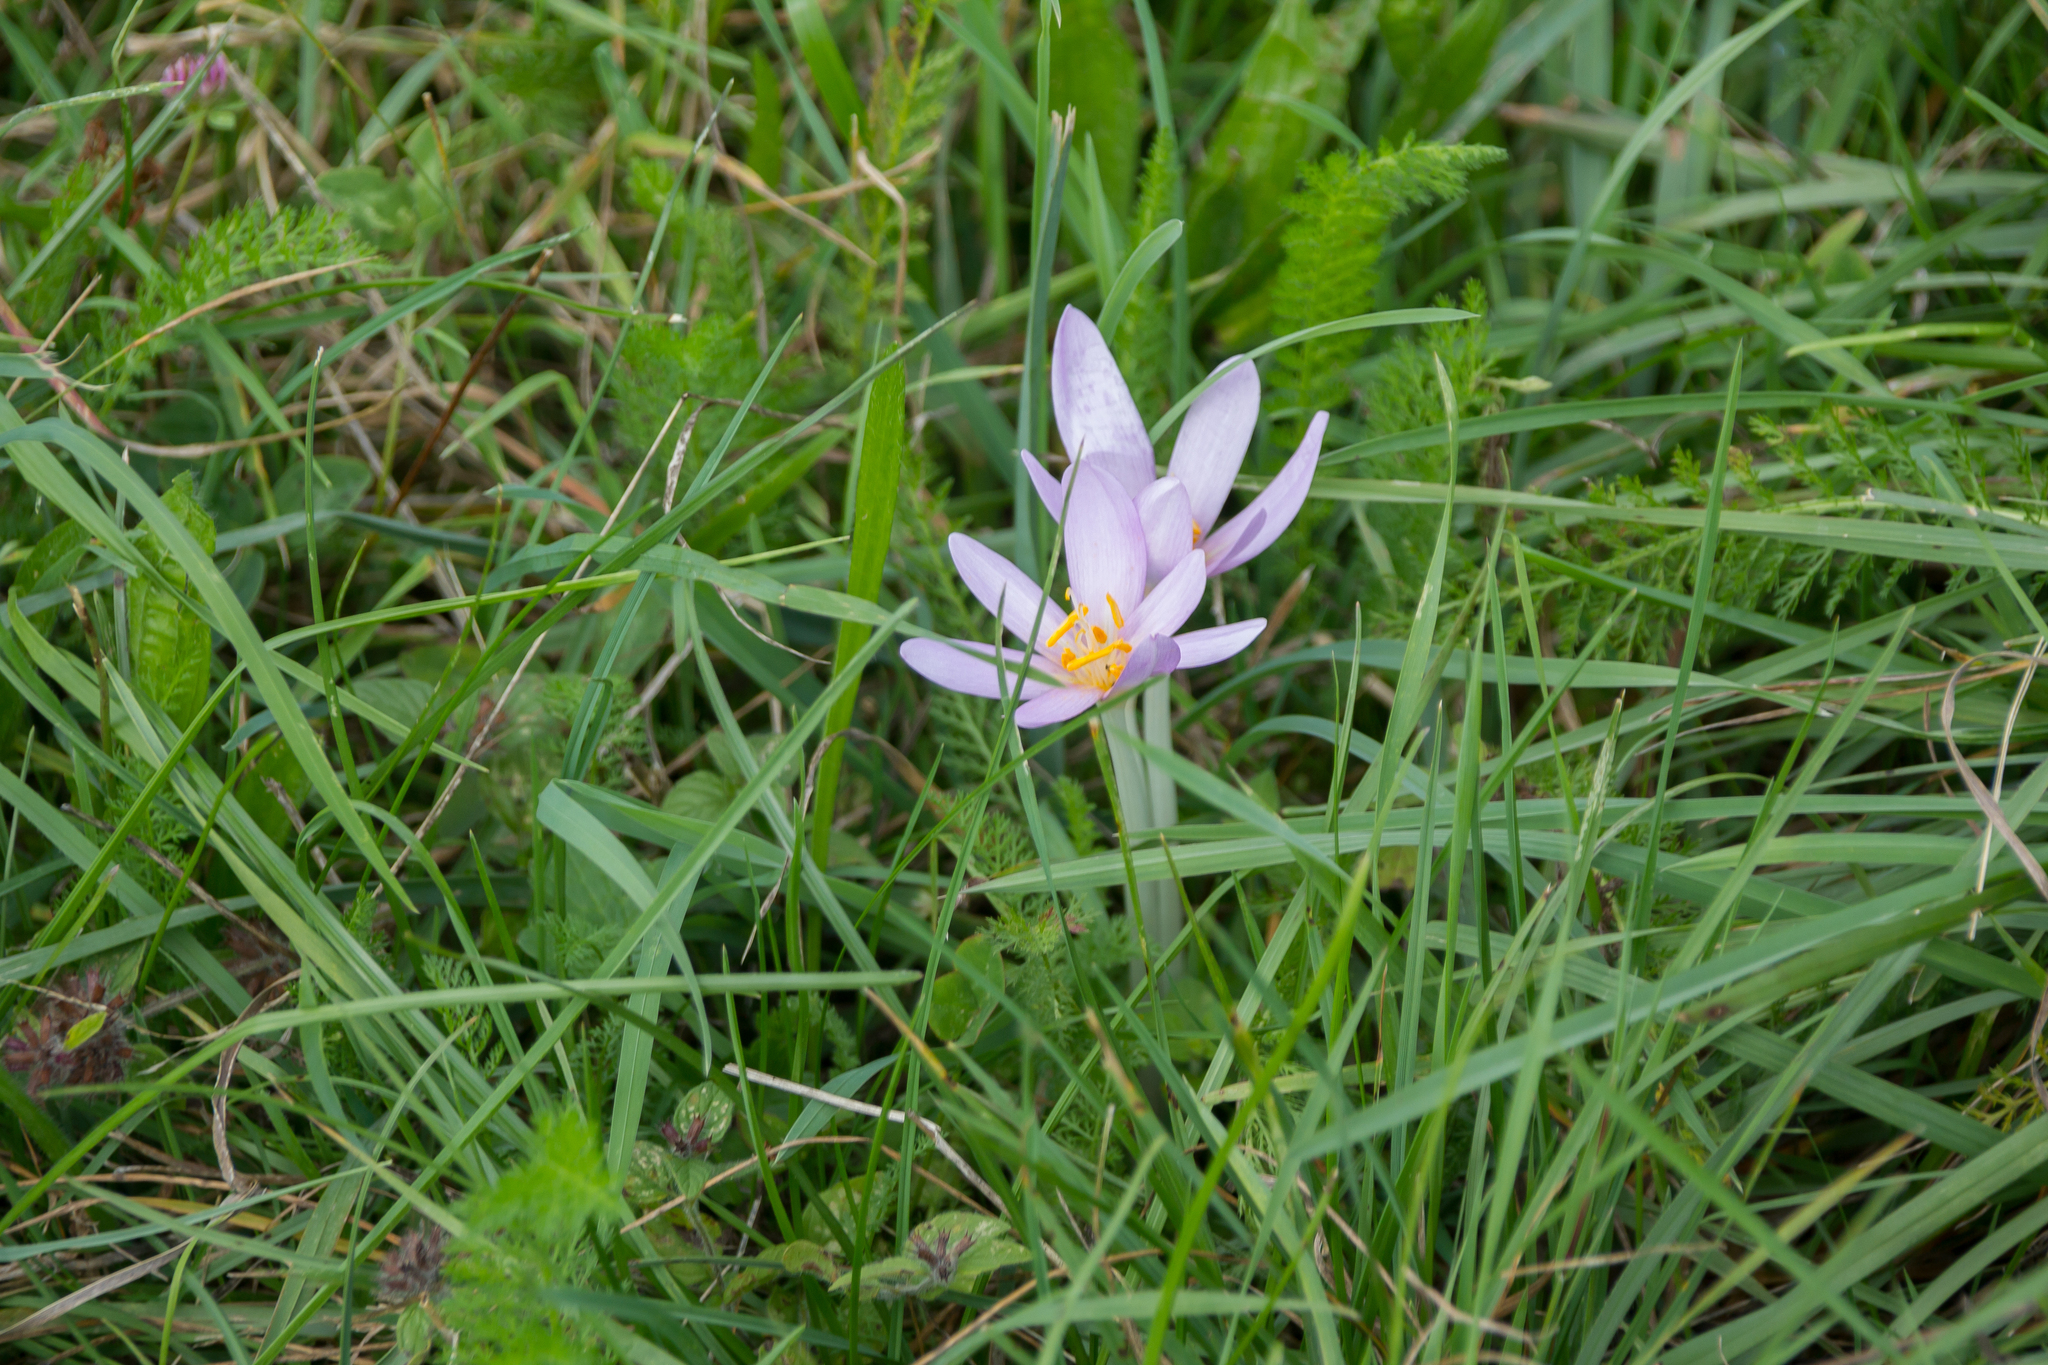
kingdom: Plantae
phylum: Tracheophyta
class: Liliopsida
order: Liliales
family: Colchicaceae
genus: Colchicum
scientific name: Colchicum autumnale
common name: Autumn crocus
